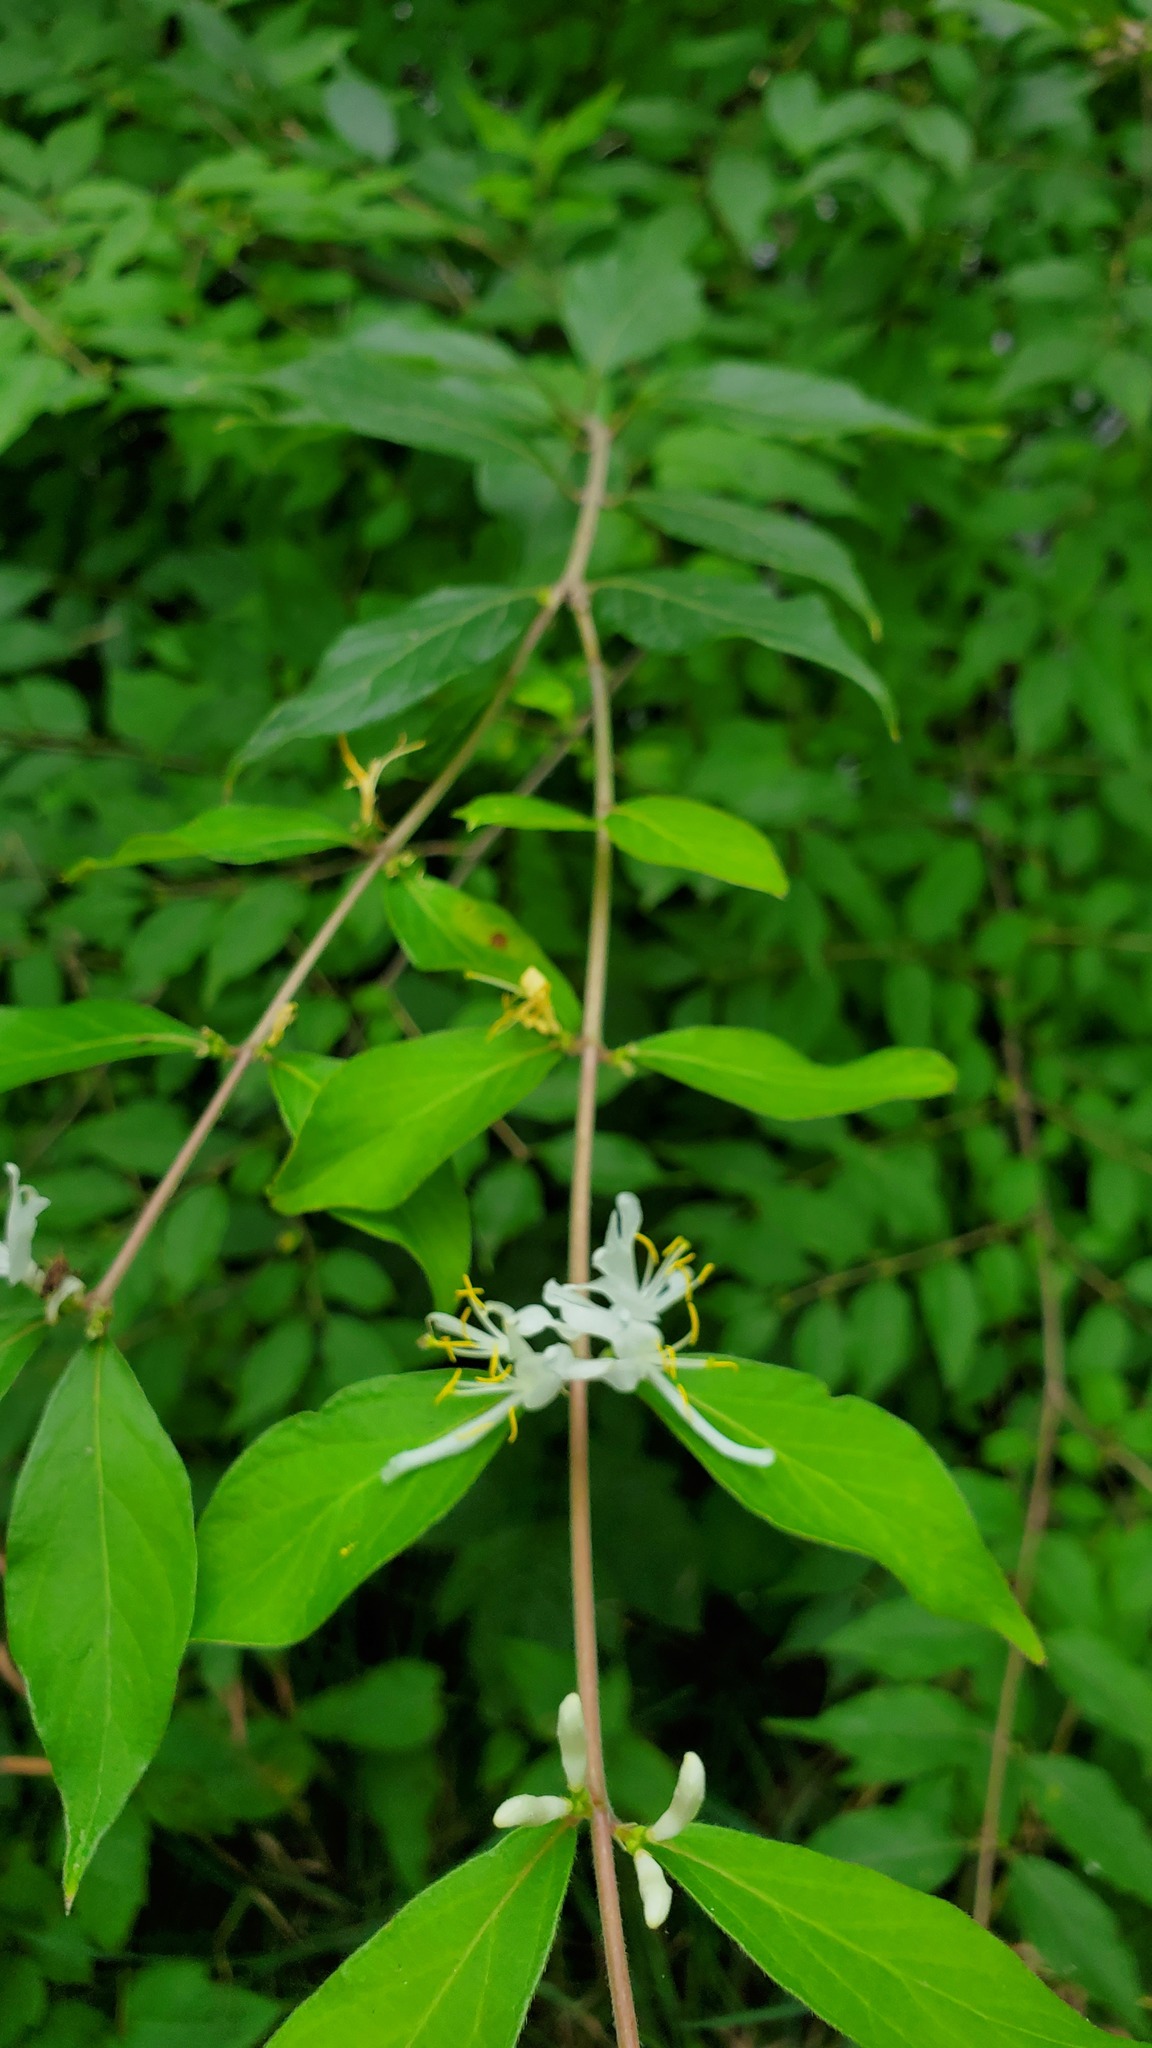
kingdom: Plantae
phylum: Tracheophyta
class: Magnoliopsida
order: Dipsacales
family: Caprifoliaceae
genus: Lonicera
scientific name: Lonicera maackii
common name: Amur honeysuckle
